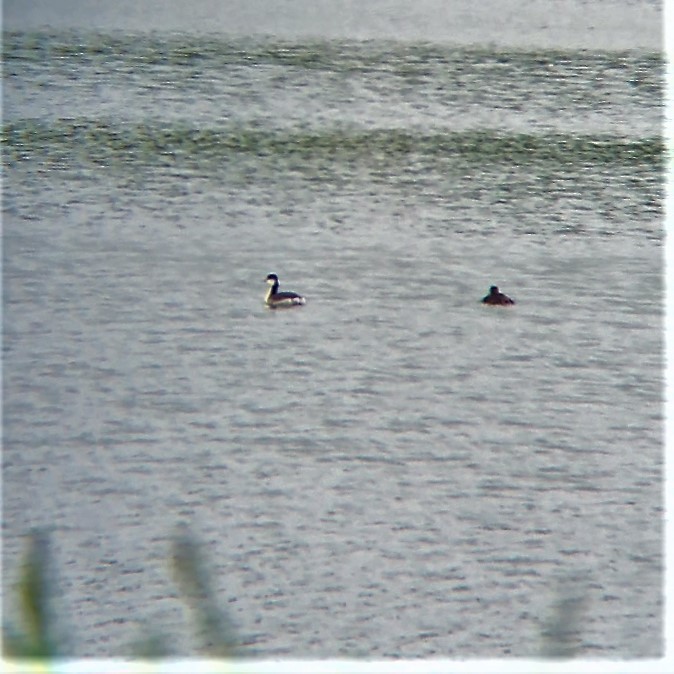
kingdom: Animalia
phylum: Chordata
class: Aves
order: Podicipediformes
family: Podicipedidae
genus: Podiceps
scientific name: Podiceps auritus
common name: Horned grebe
